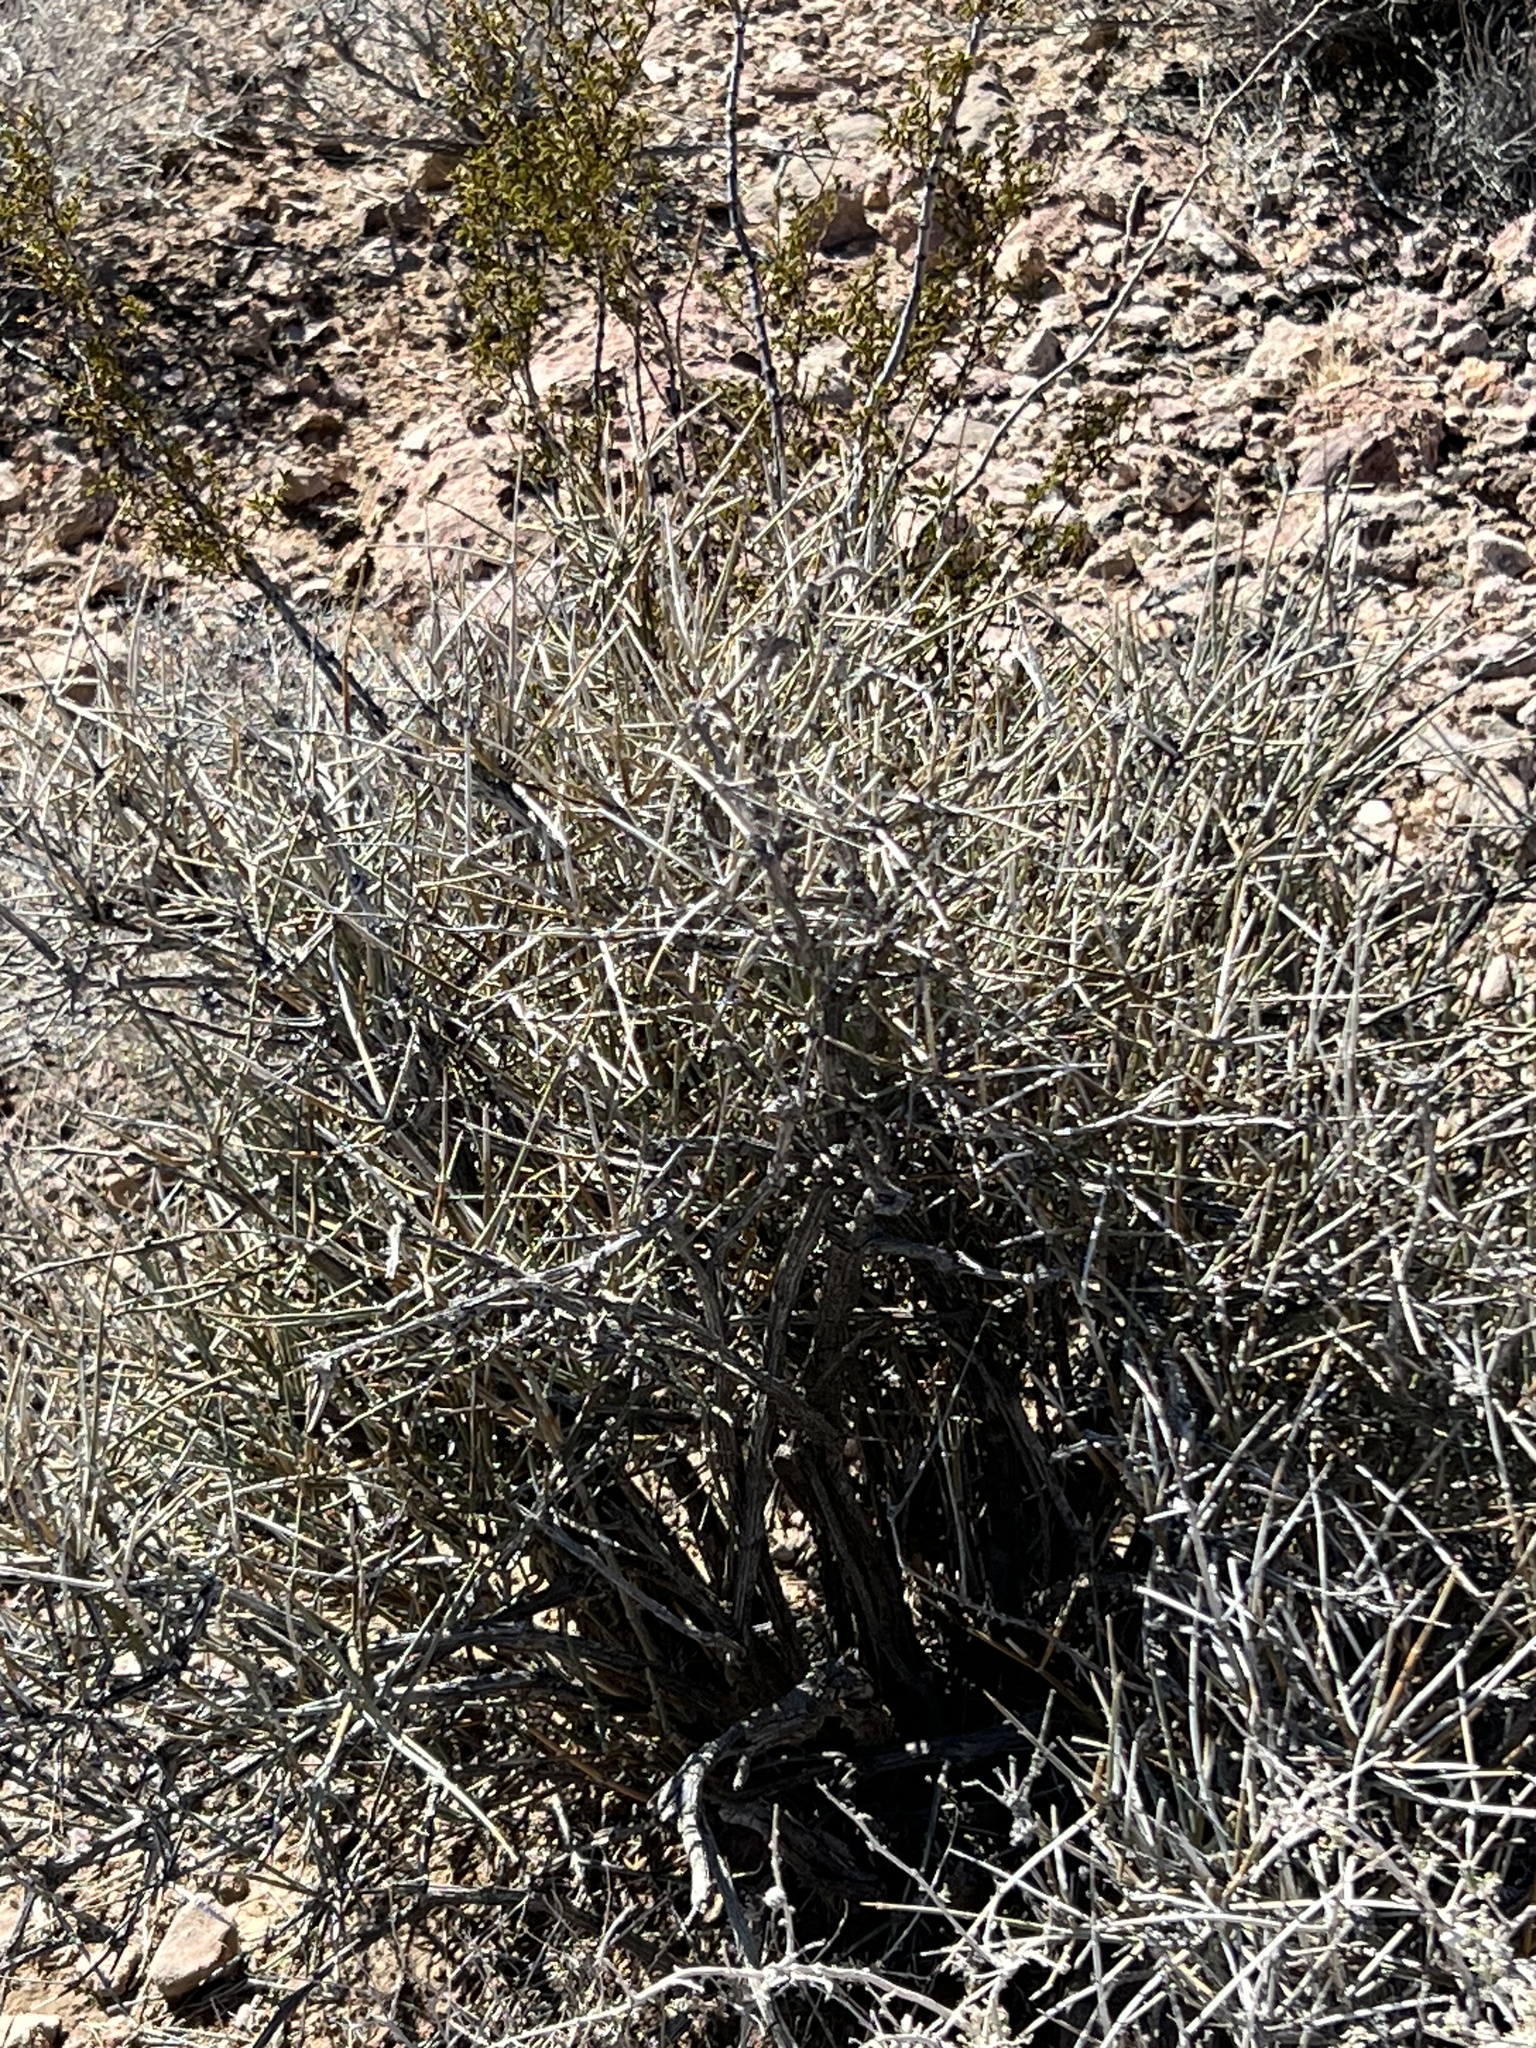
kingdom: Plantae
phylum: Tracheophyta
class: Gnetopsida
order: Ephedrales
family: Ephedraceae
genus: Ephedra
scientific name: Ephedra nevadensis
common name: Gray ephedra
